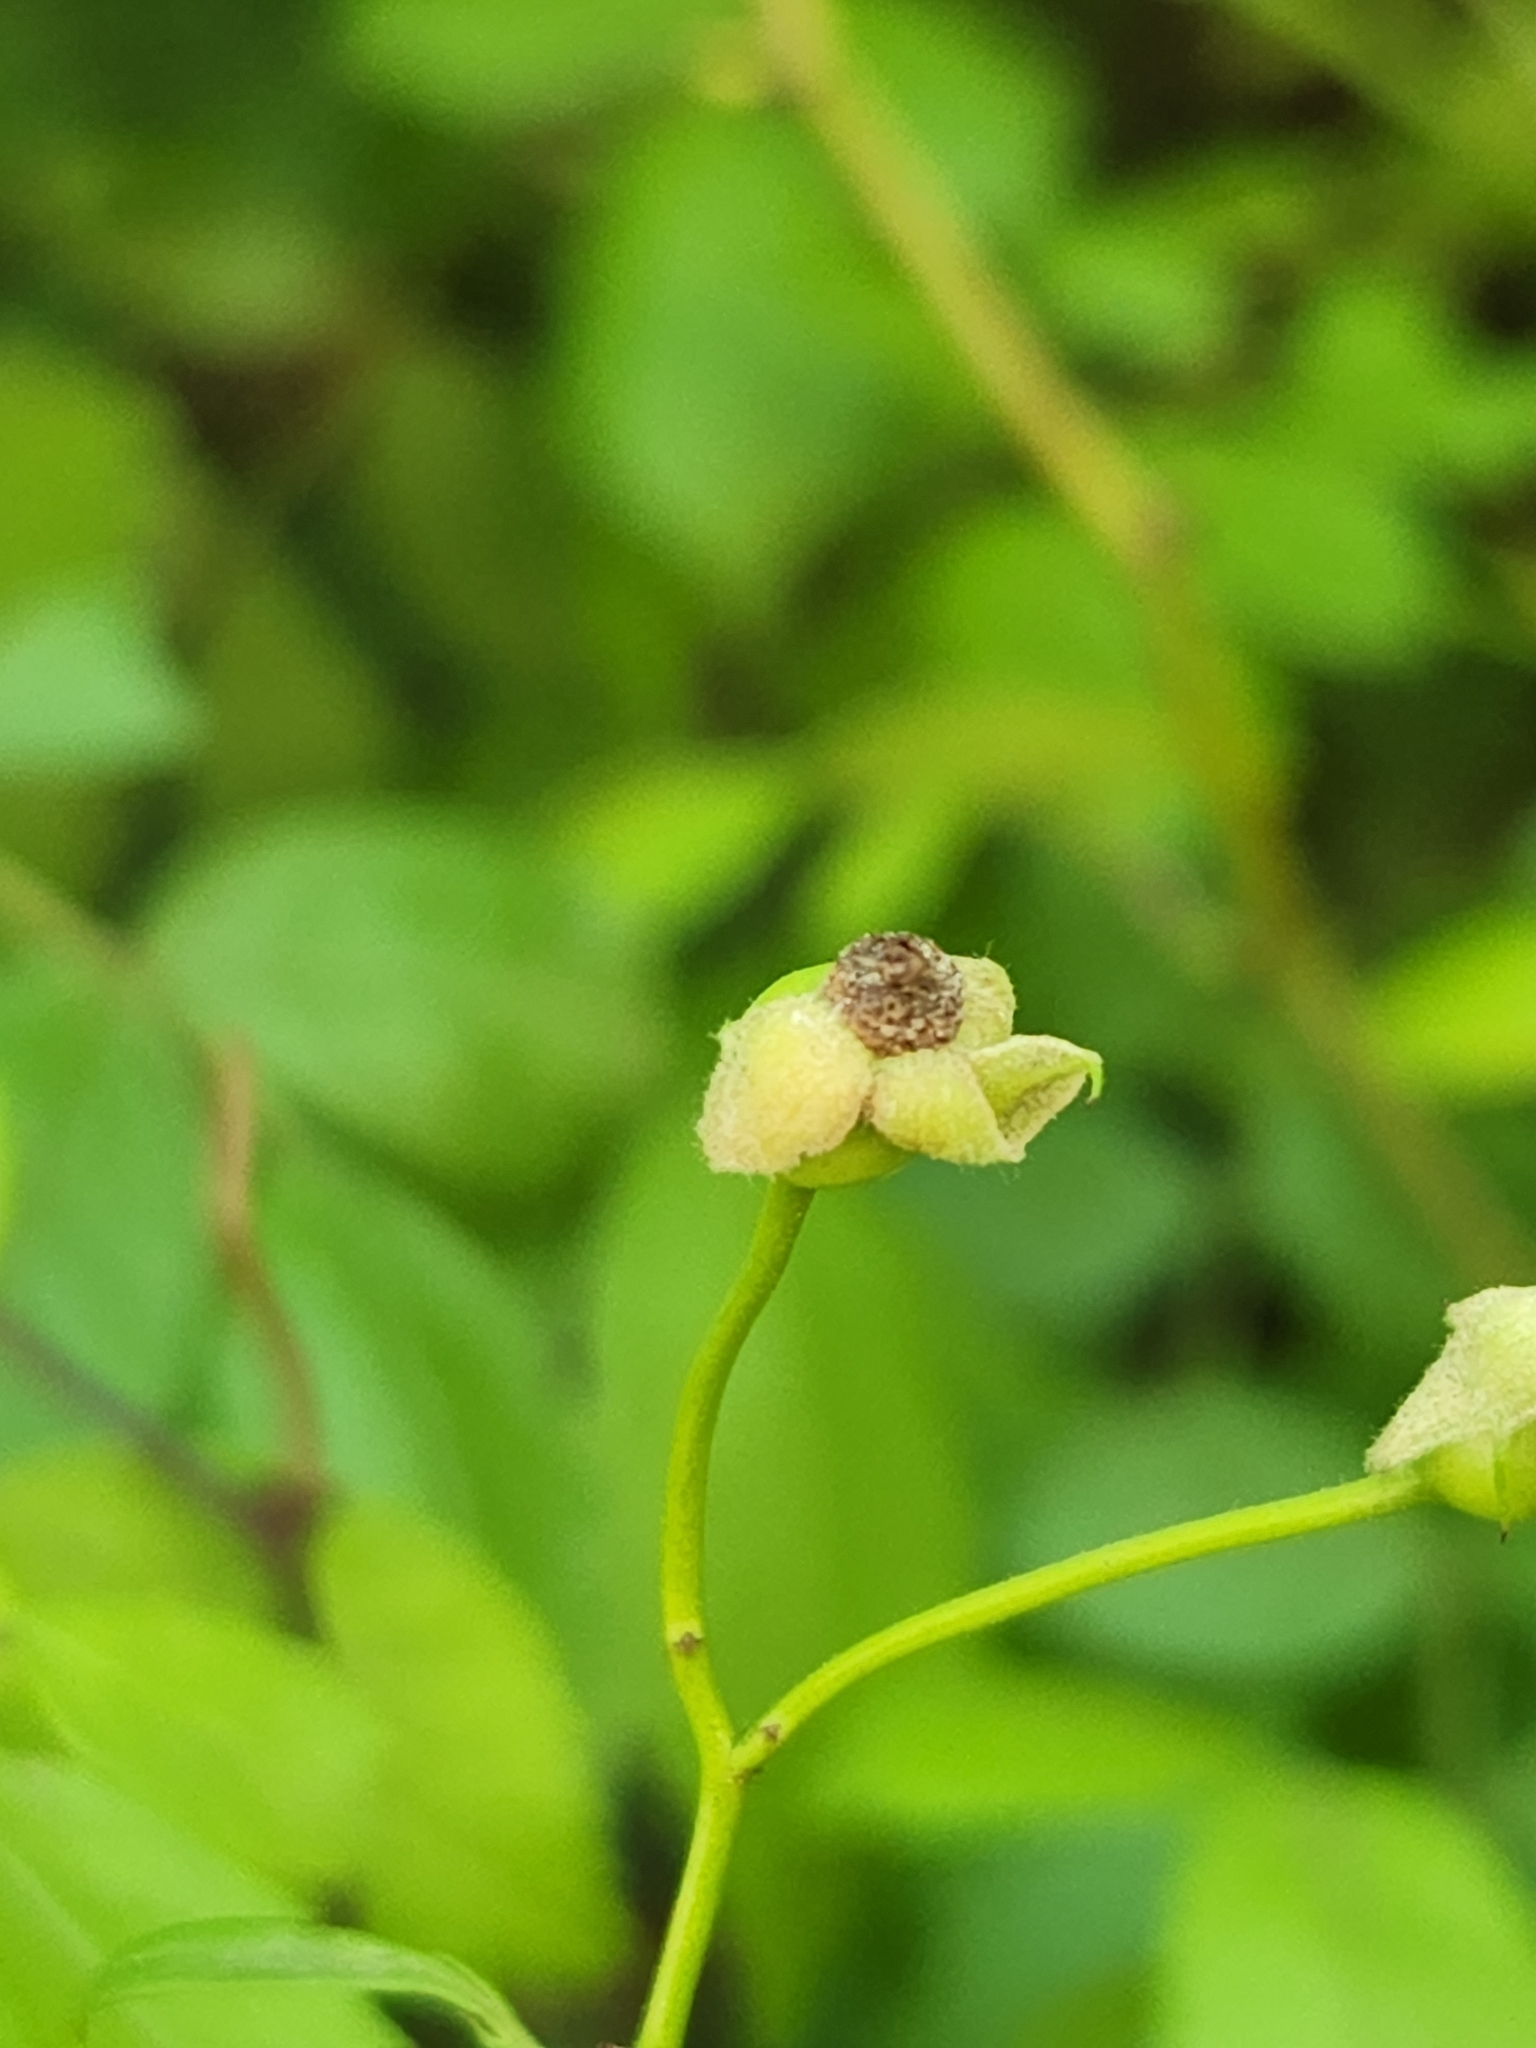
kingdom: Plantae
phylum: Tracheophyta
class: Magnoliopsida
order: Rosales
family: Rosaceae
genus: Rosa
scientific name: Rosa multiflora
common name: Multiflora rose
